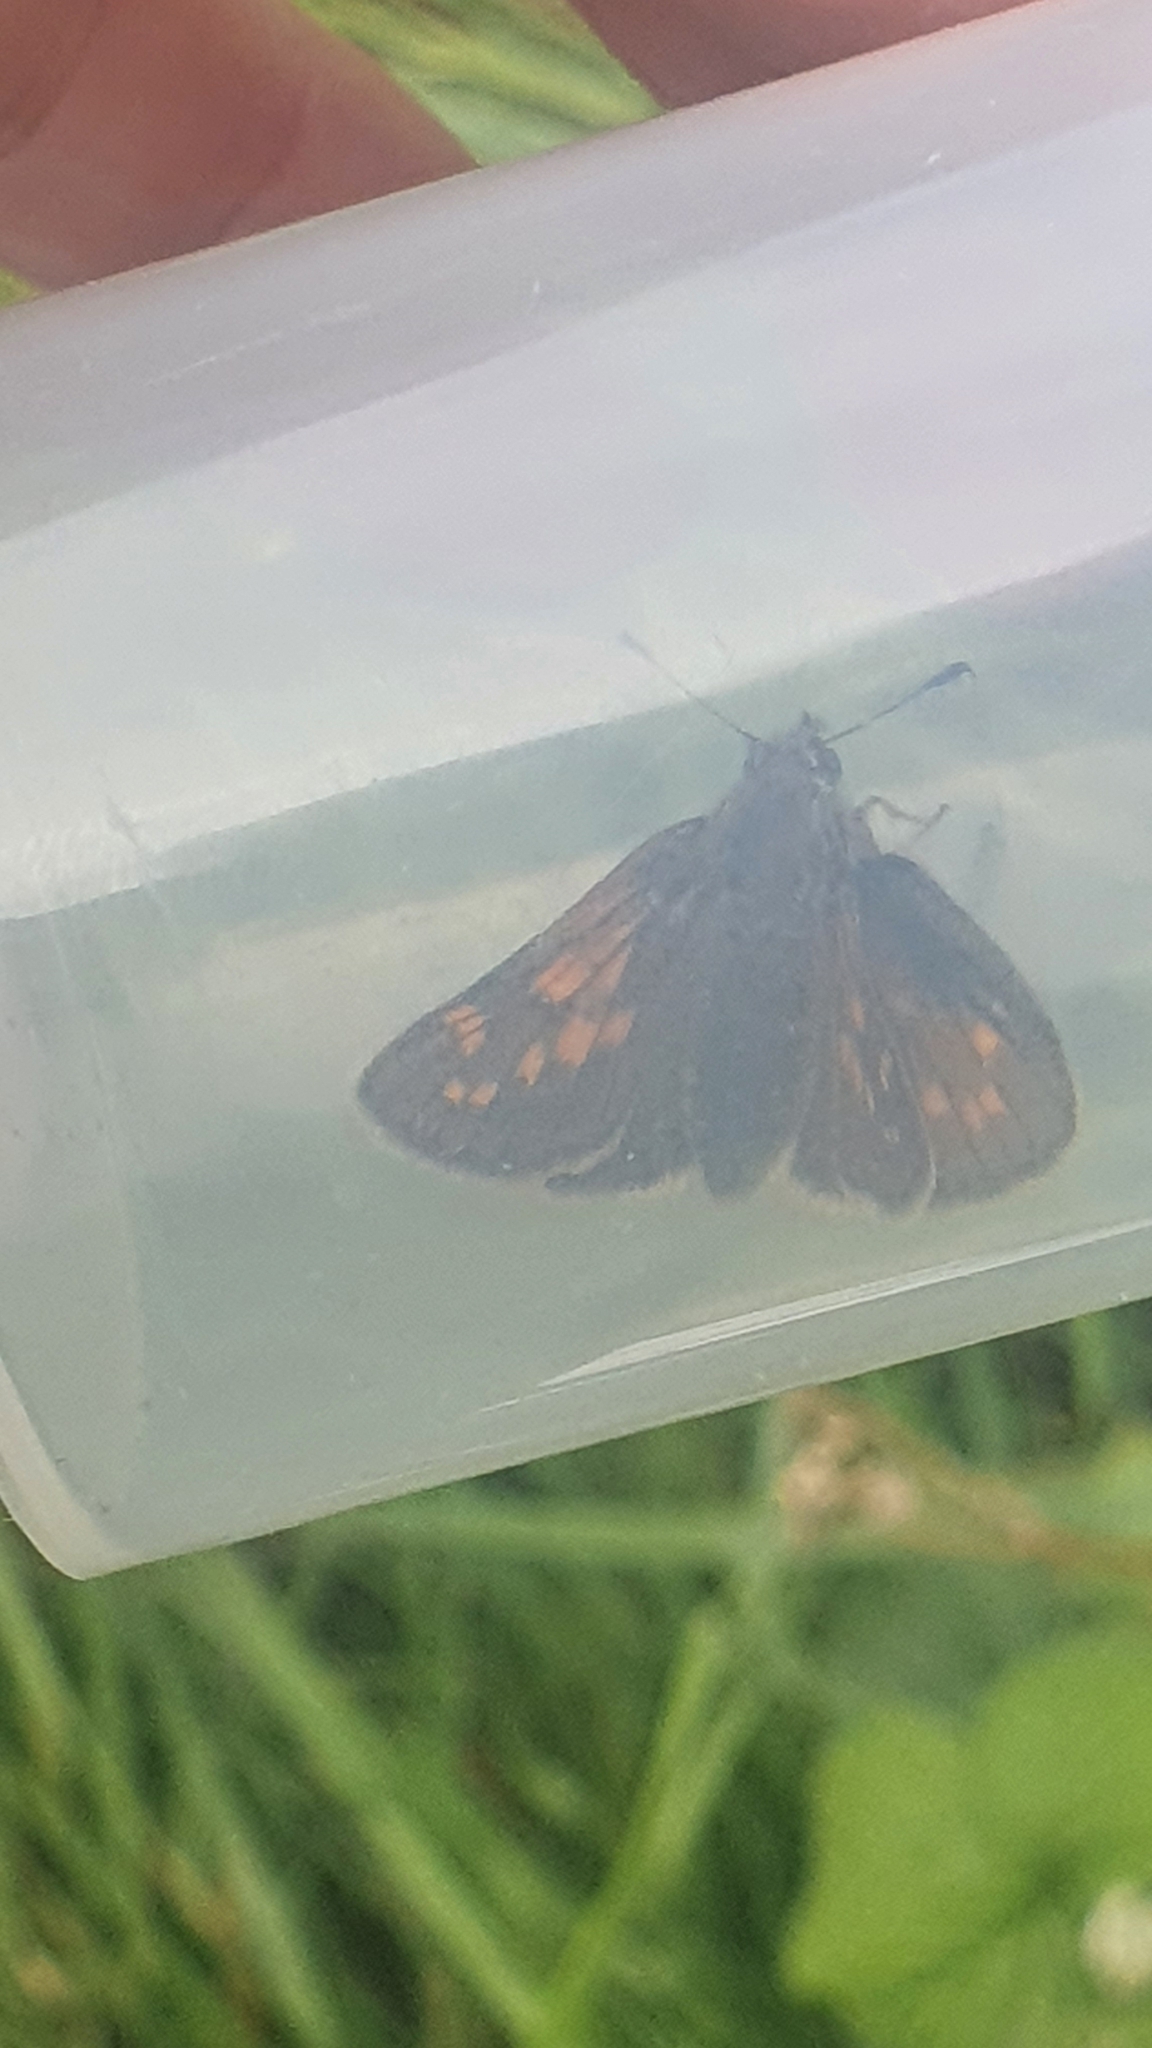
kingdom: Animalia
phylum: Arthropoda
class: Insecta
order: Lepidoptera
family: Hesperiidae
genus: Ochlodes
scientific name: Ochlodes venata
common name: Large skipper
